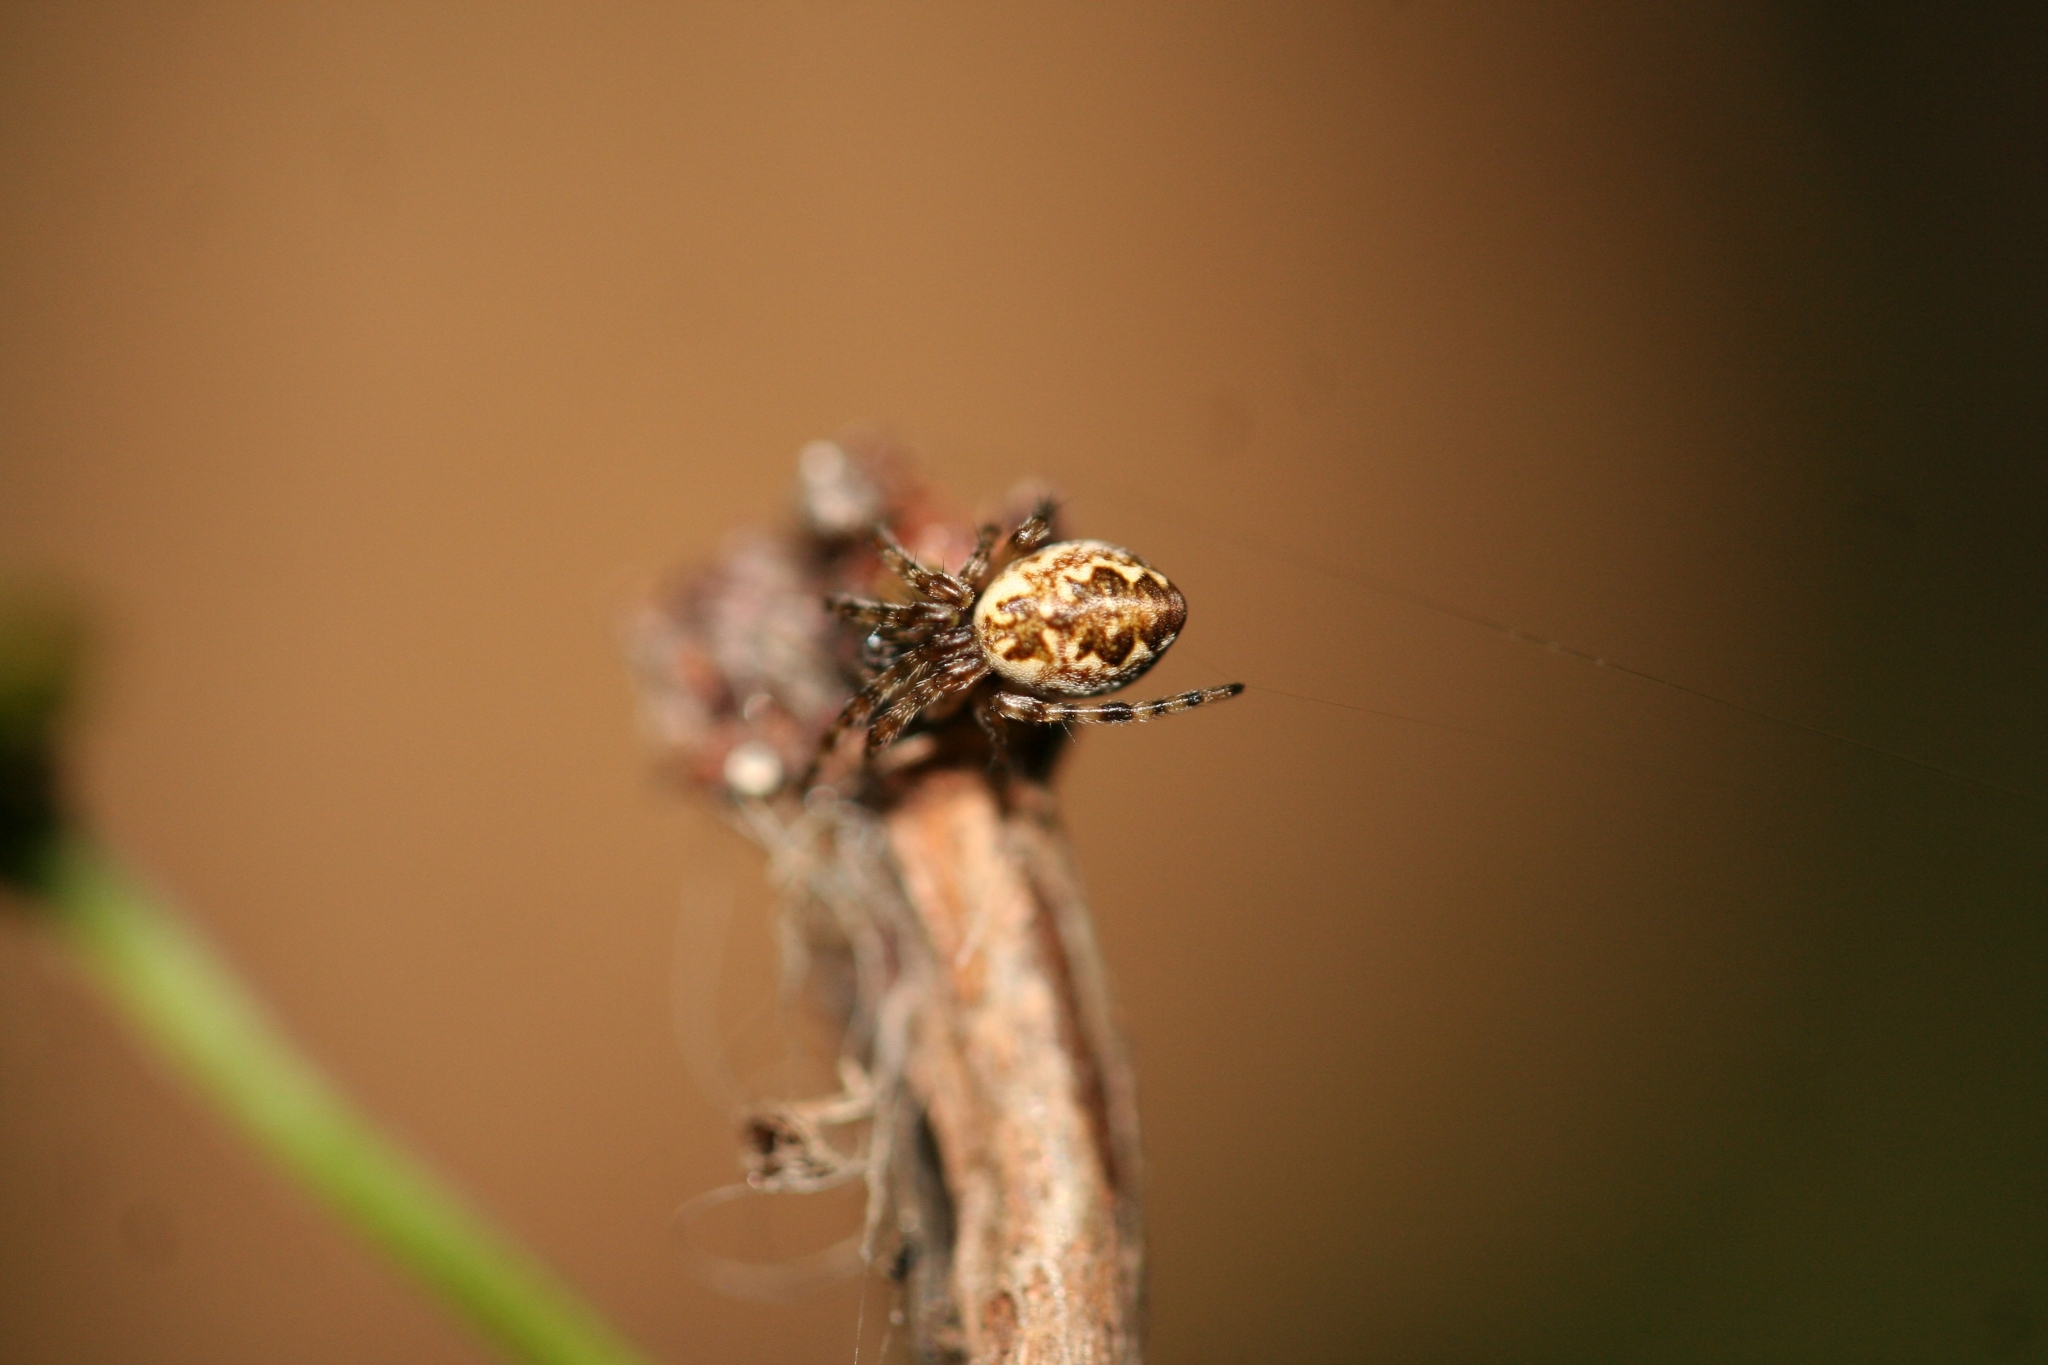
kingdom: Animalia
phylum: Arthropoda
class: Arachnida
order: Araneae
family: Araneidae
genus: Cyclosa
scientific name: Cyclosa conica
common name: Conical trashline orbweaver
